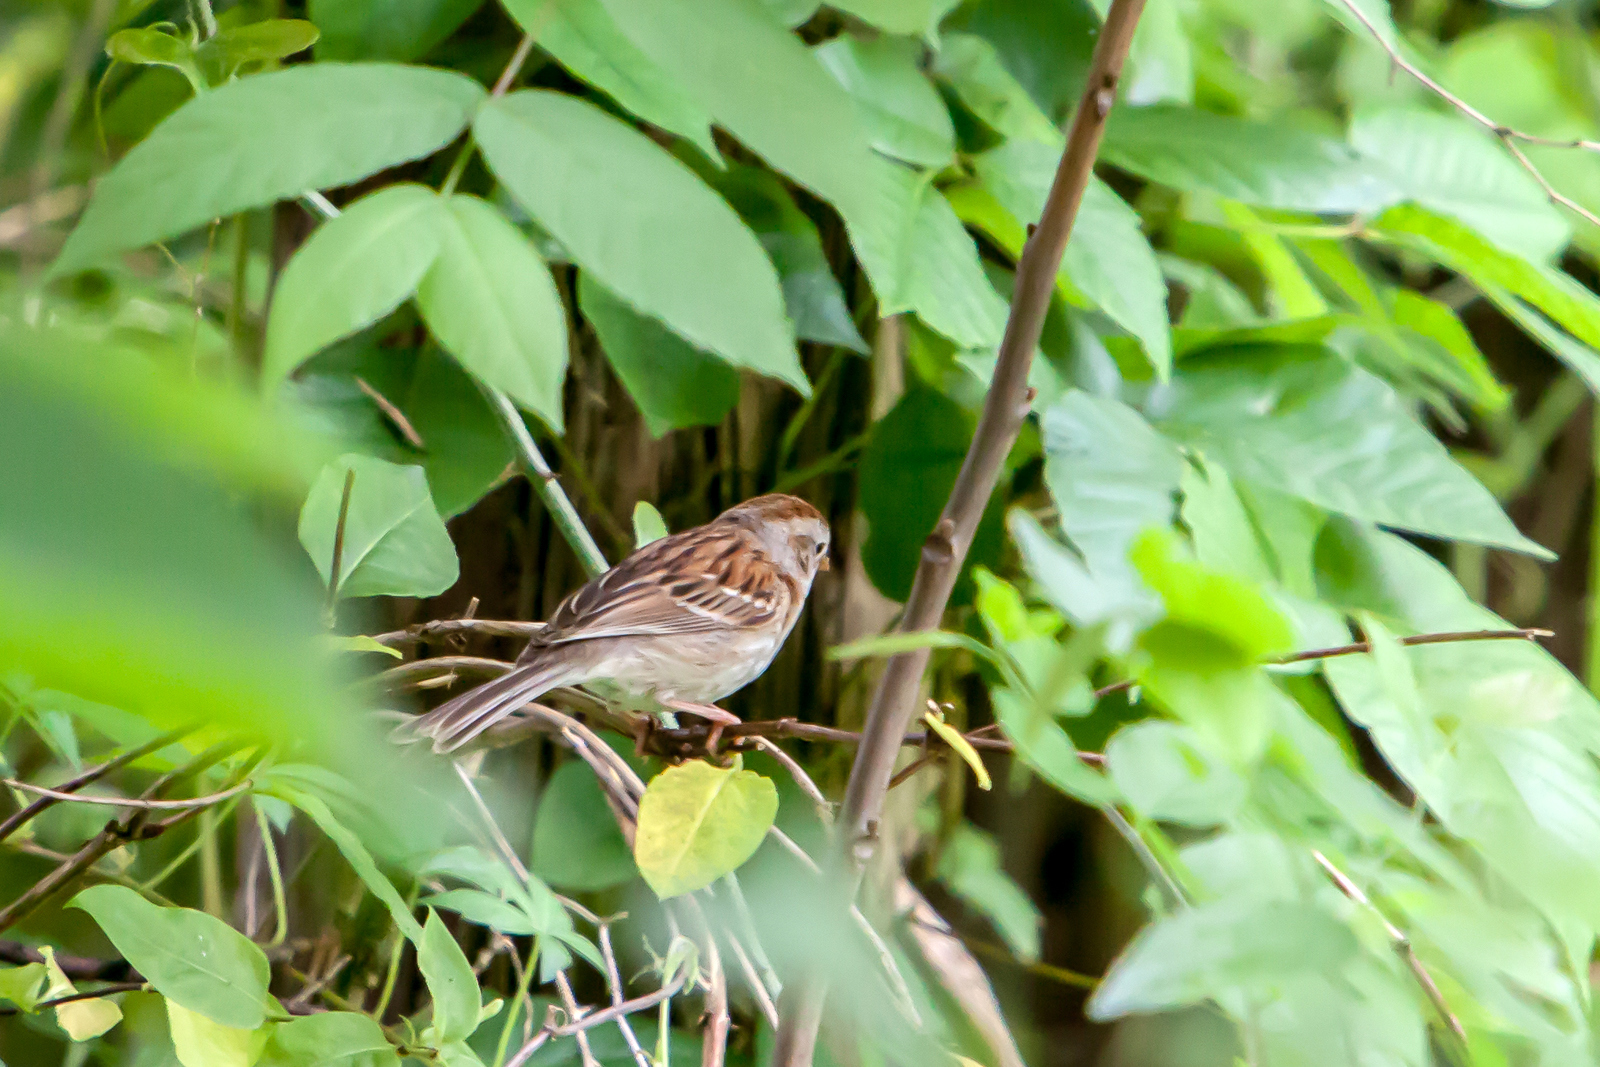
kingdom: Animalia
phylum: Chordata
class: Aves
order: Passeriformes
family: Passerellidae
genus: Spizella
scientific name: Spizella pusilla
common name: Field sparrow
